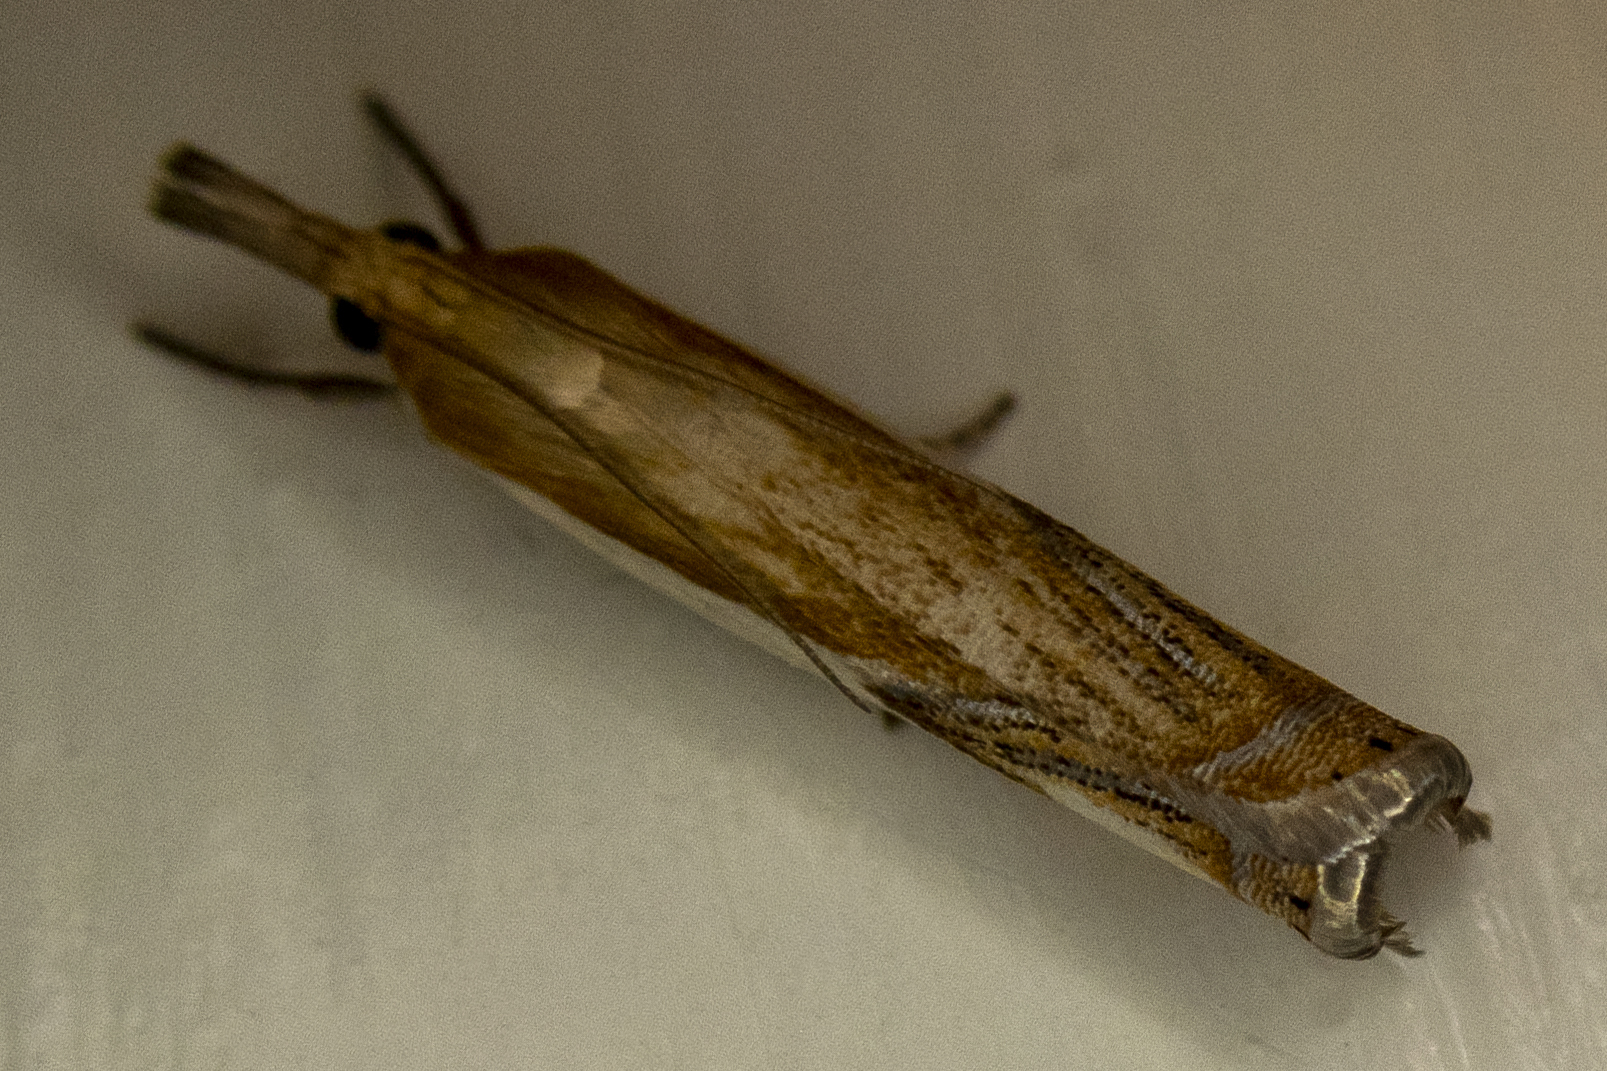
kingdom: Animalia
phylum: Arthropoda
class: Insecta
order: Lepidoptera
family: Crambidae
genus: Crambus
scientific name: Crambus agitatellus
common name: Double-banded grass-veneer
